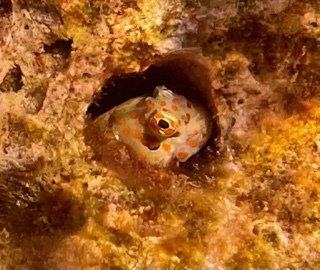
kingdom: Animalia
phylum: Chordata
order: Perciformes
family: Blenniidae
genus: Blenniella
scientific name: Blenniella chrysospilos
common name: Orange-spotted blenny
